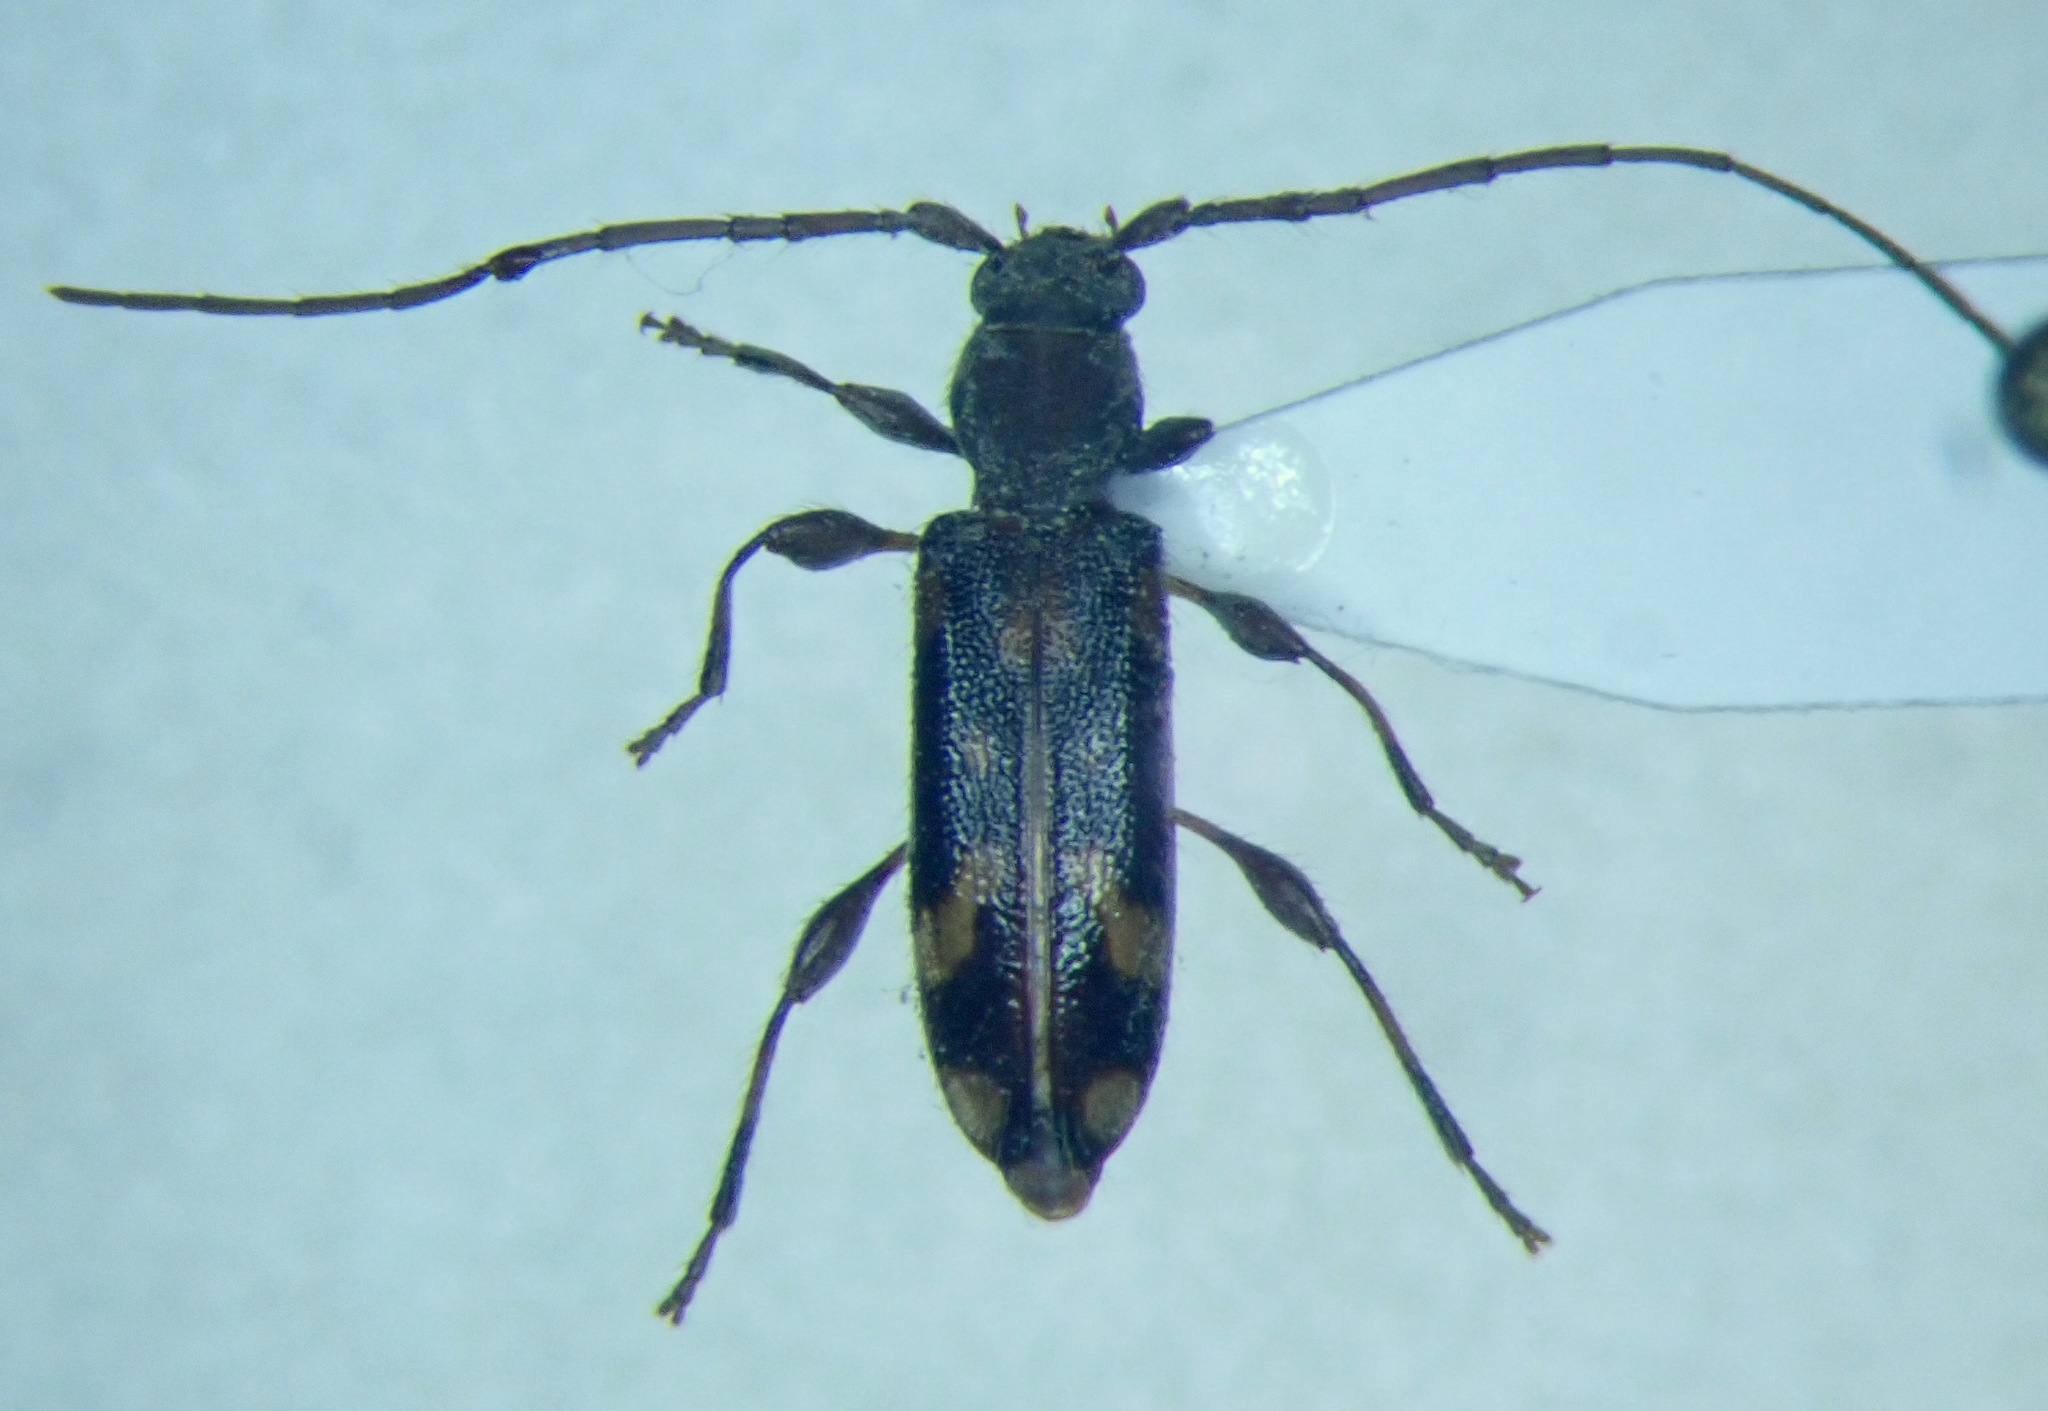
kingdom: Animalia
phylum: Arthropoda
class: Insecta
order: Coleoptera
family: Cerambycidae
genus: Bethelium
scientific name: Bethelium signiferum
